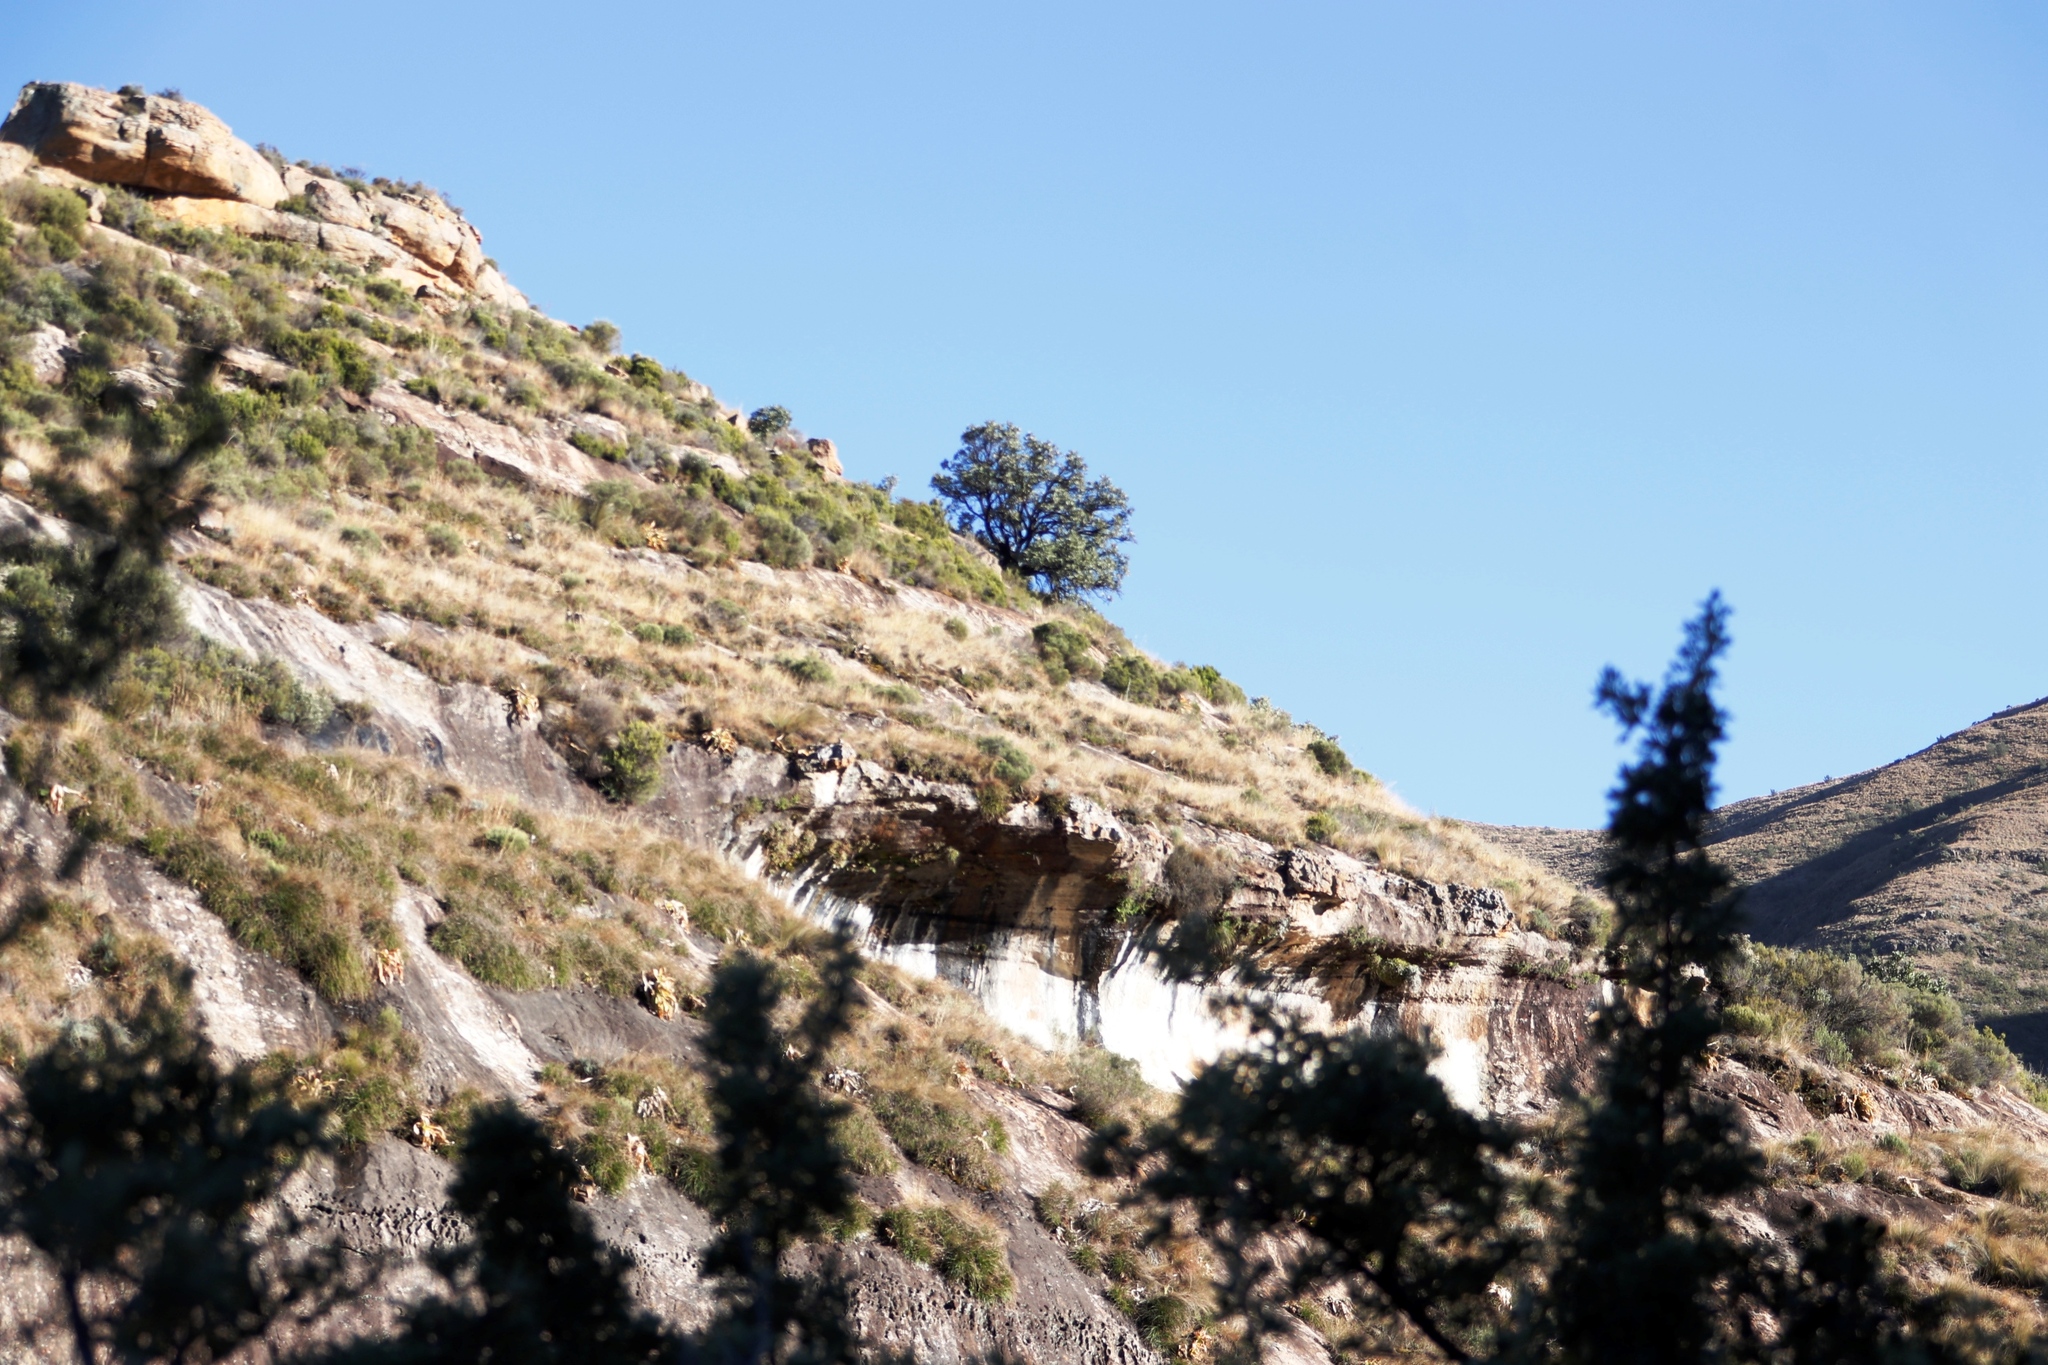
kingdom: Plantae
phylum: Tracheophyta
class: Magnoliopsida
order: Proteales
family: Proteaceae
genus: Protea
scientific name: Protea caffra
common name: Common sugarbush
